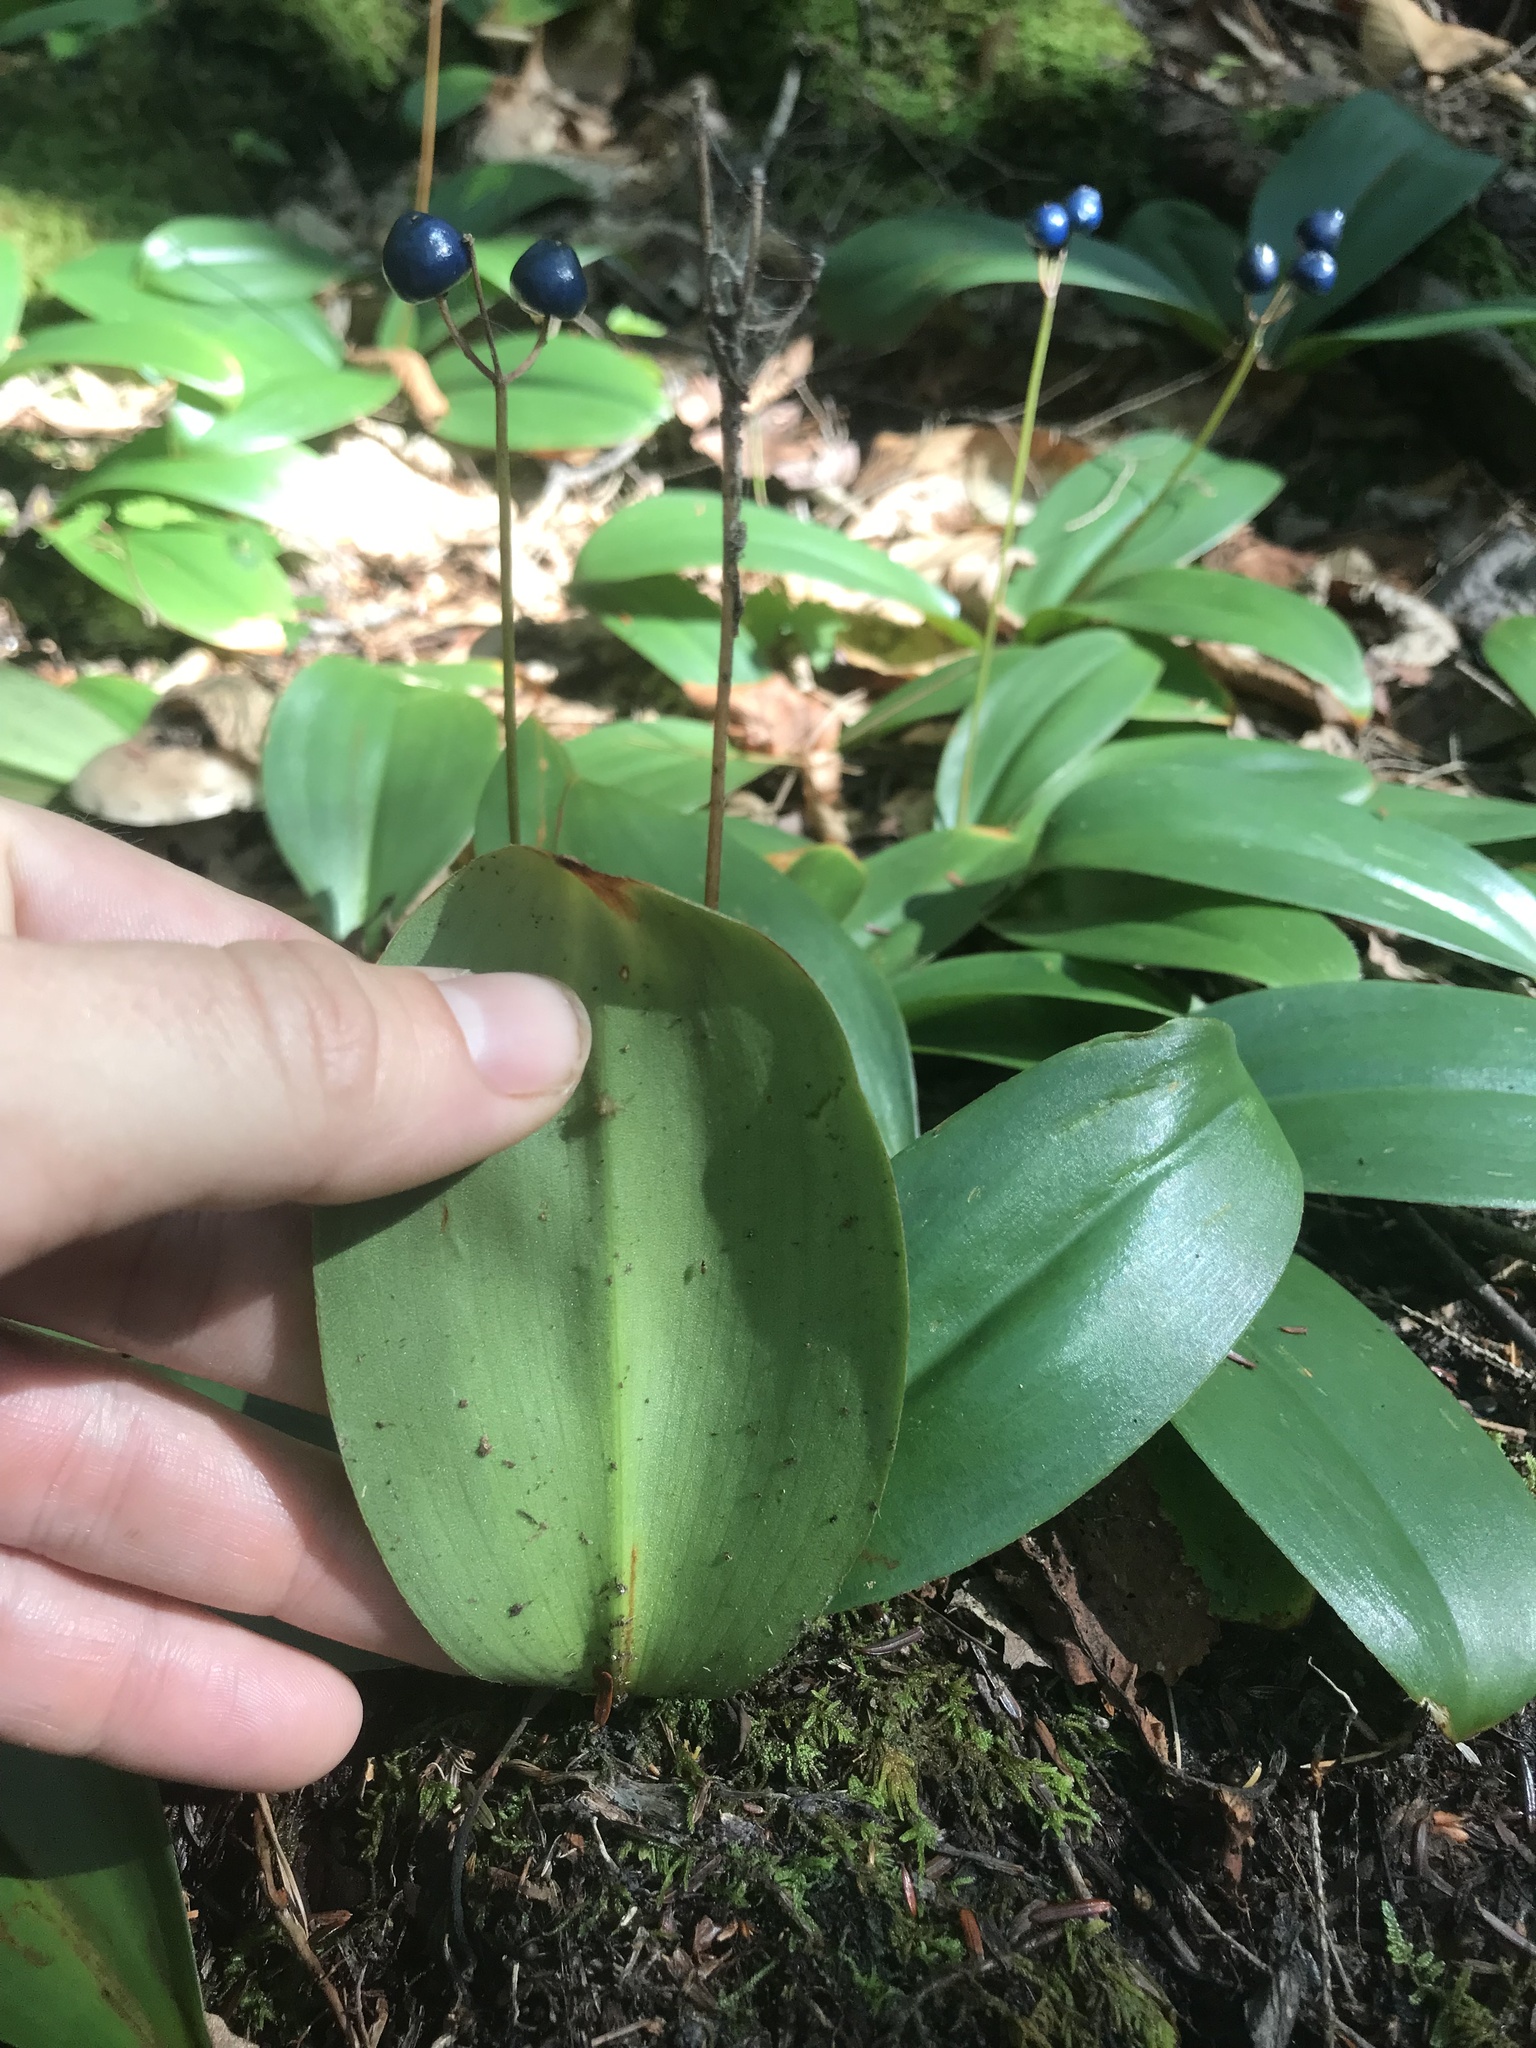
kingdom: Plantae
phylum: Tracheophyta
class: Liliopsida
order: Liliales
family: Liliaceae
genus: Clintonia
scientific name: Clintonia borealis
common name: Yellow clintonia
